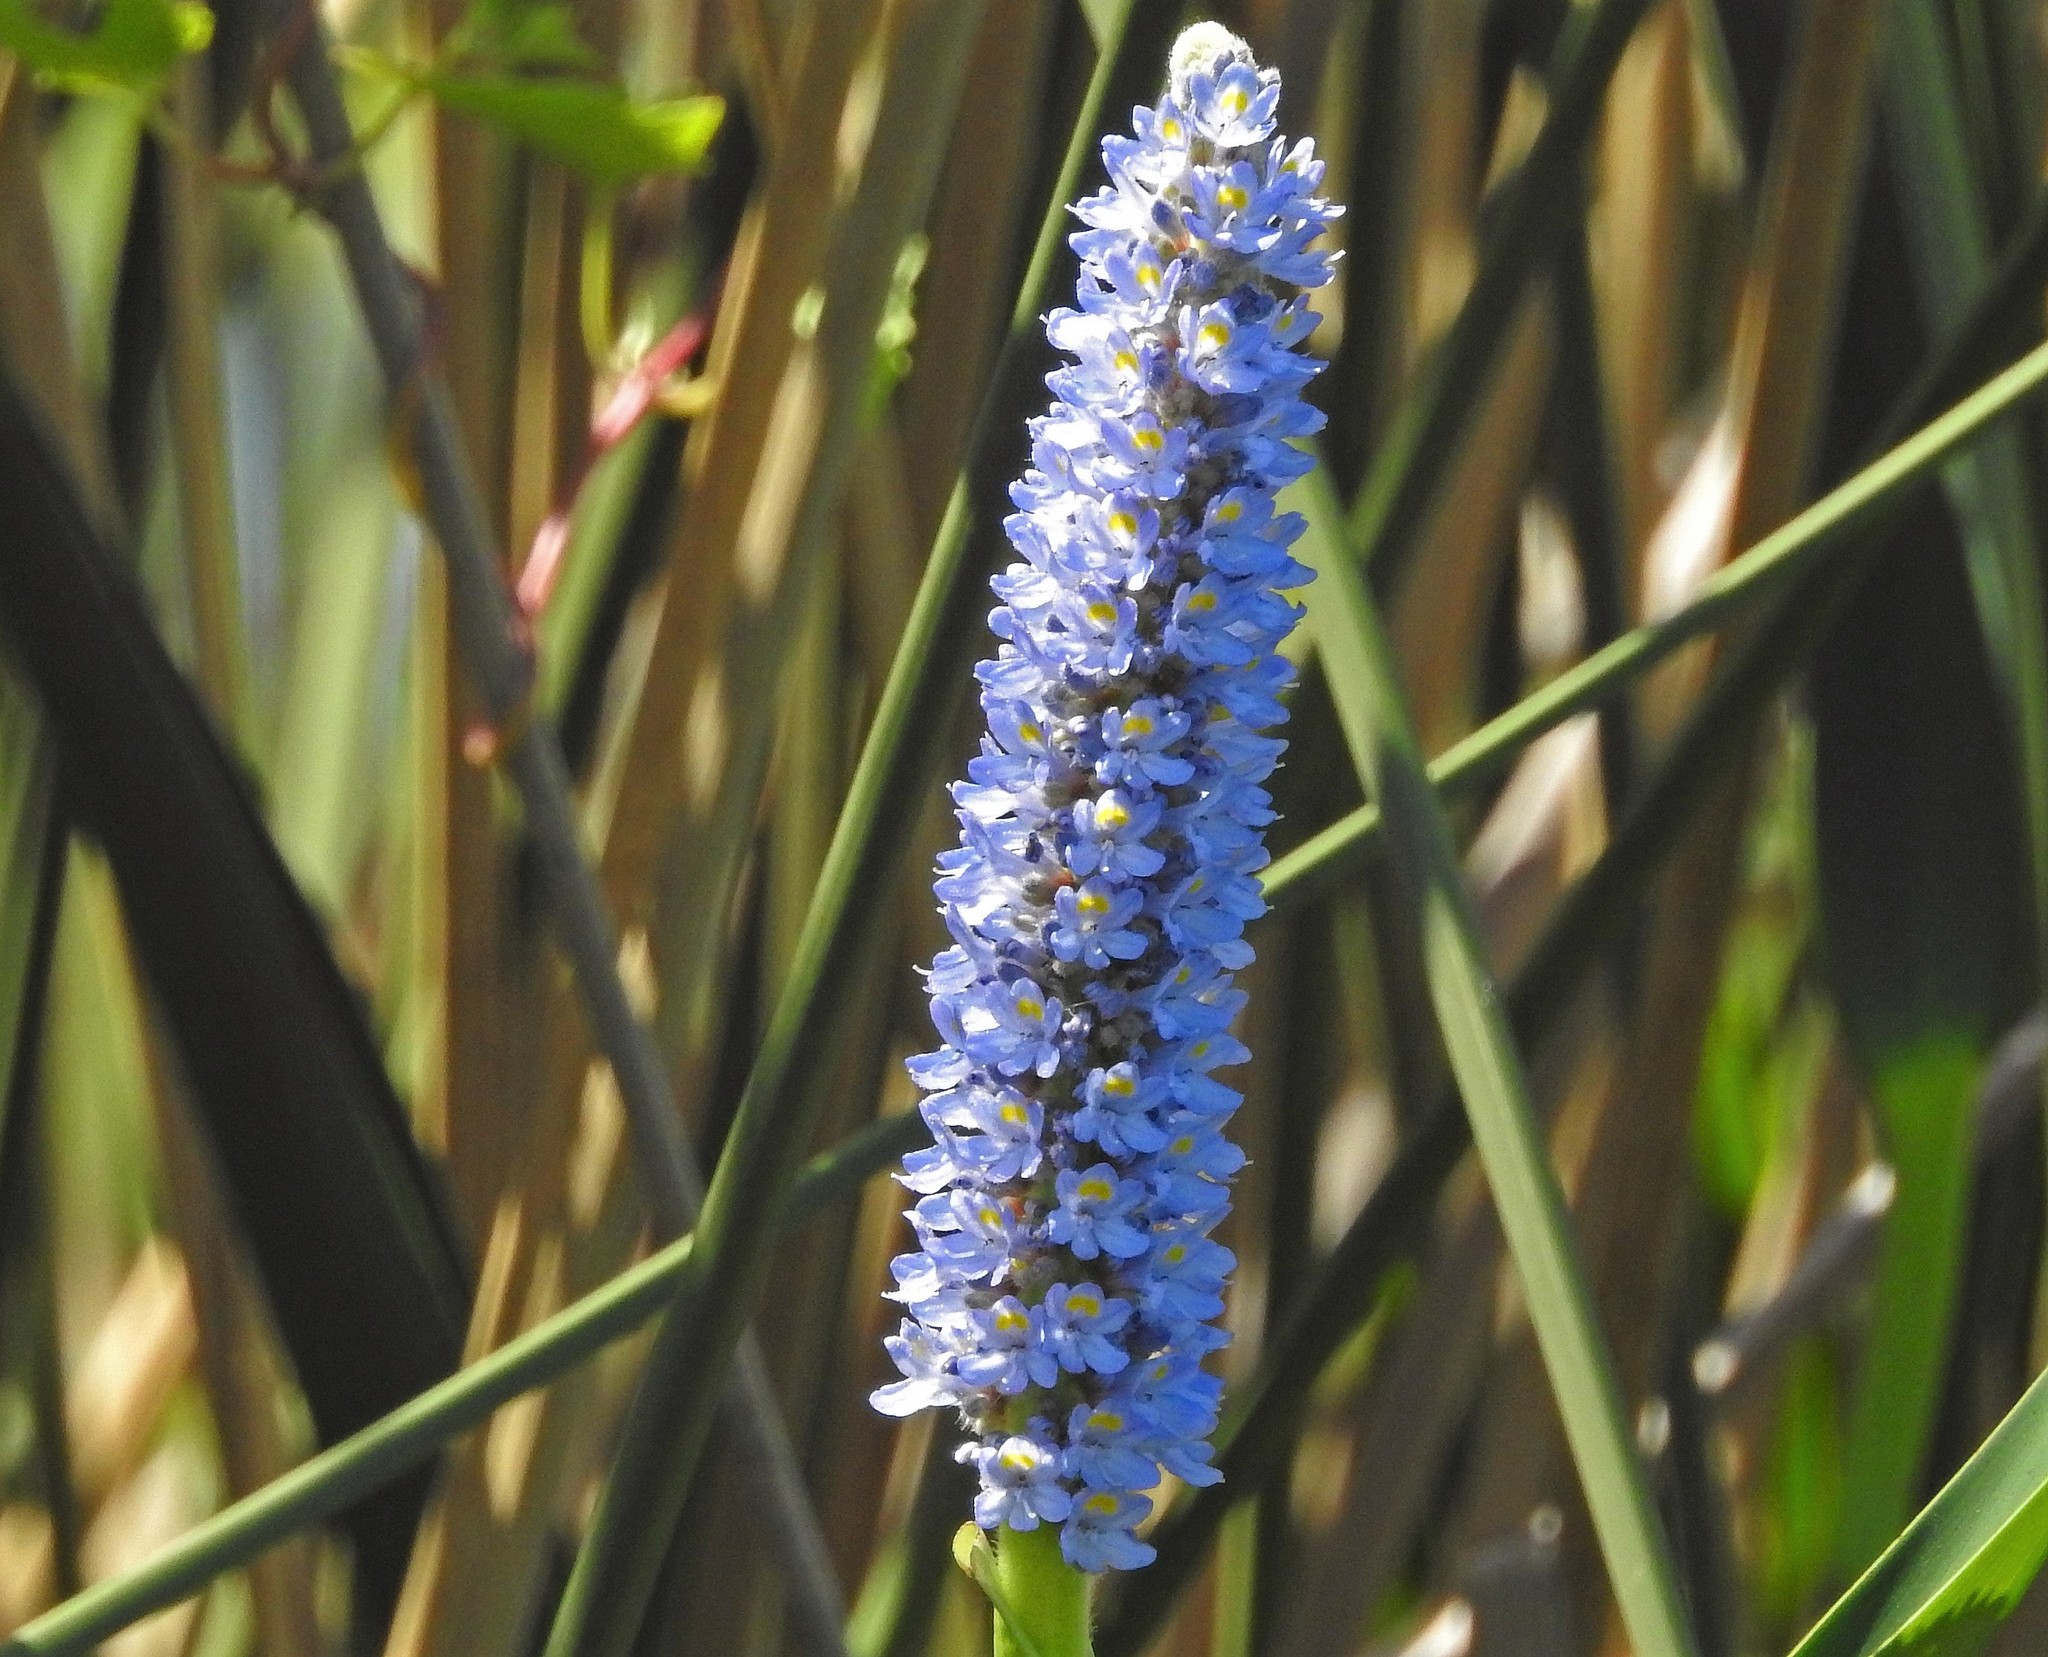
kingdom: Plantae
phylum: Tracheophyta
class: Liliopsida
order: Commelinales
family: Pontederiaceae
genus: Pontederia
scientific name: Pontederia cordata
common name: Pickerelweed
